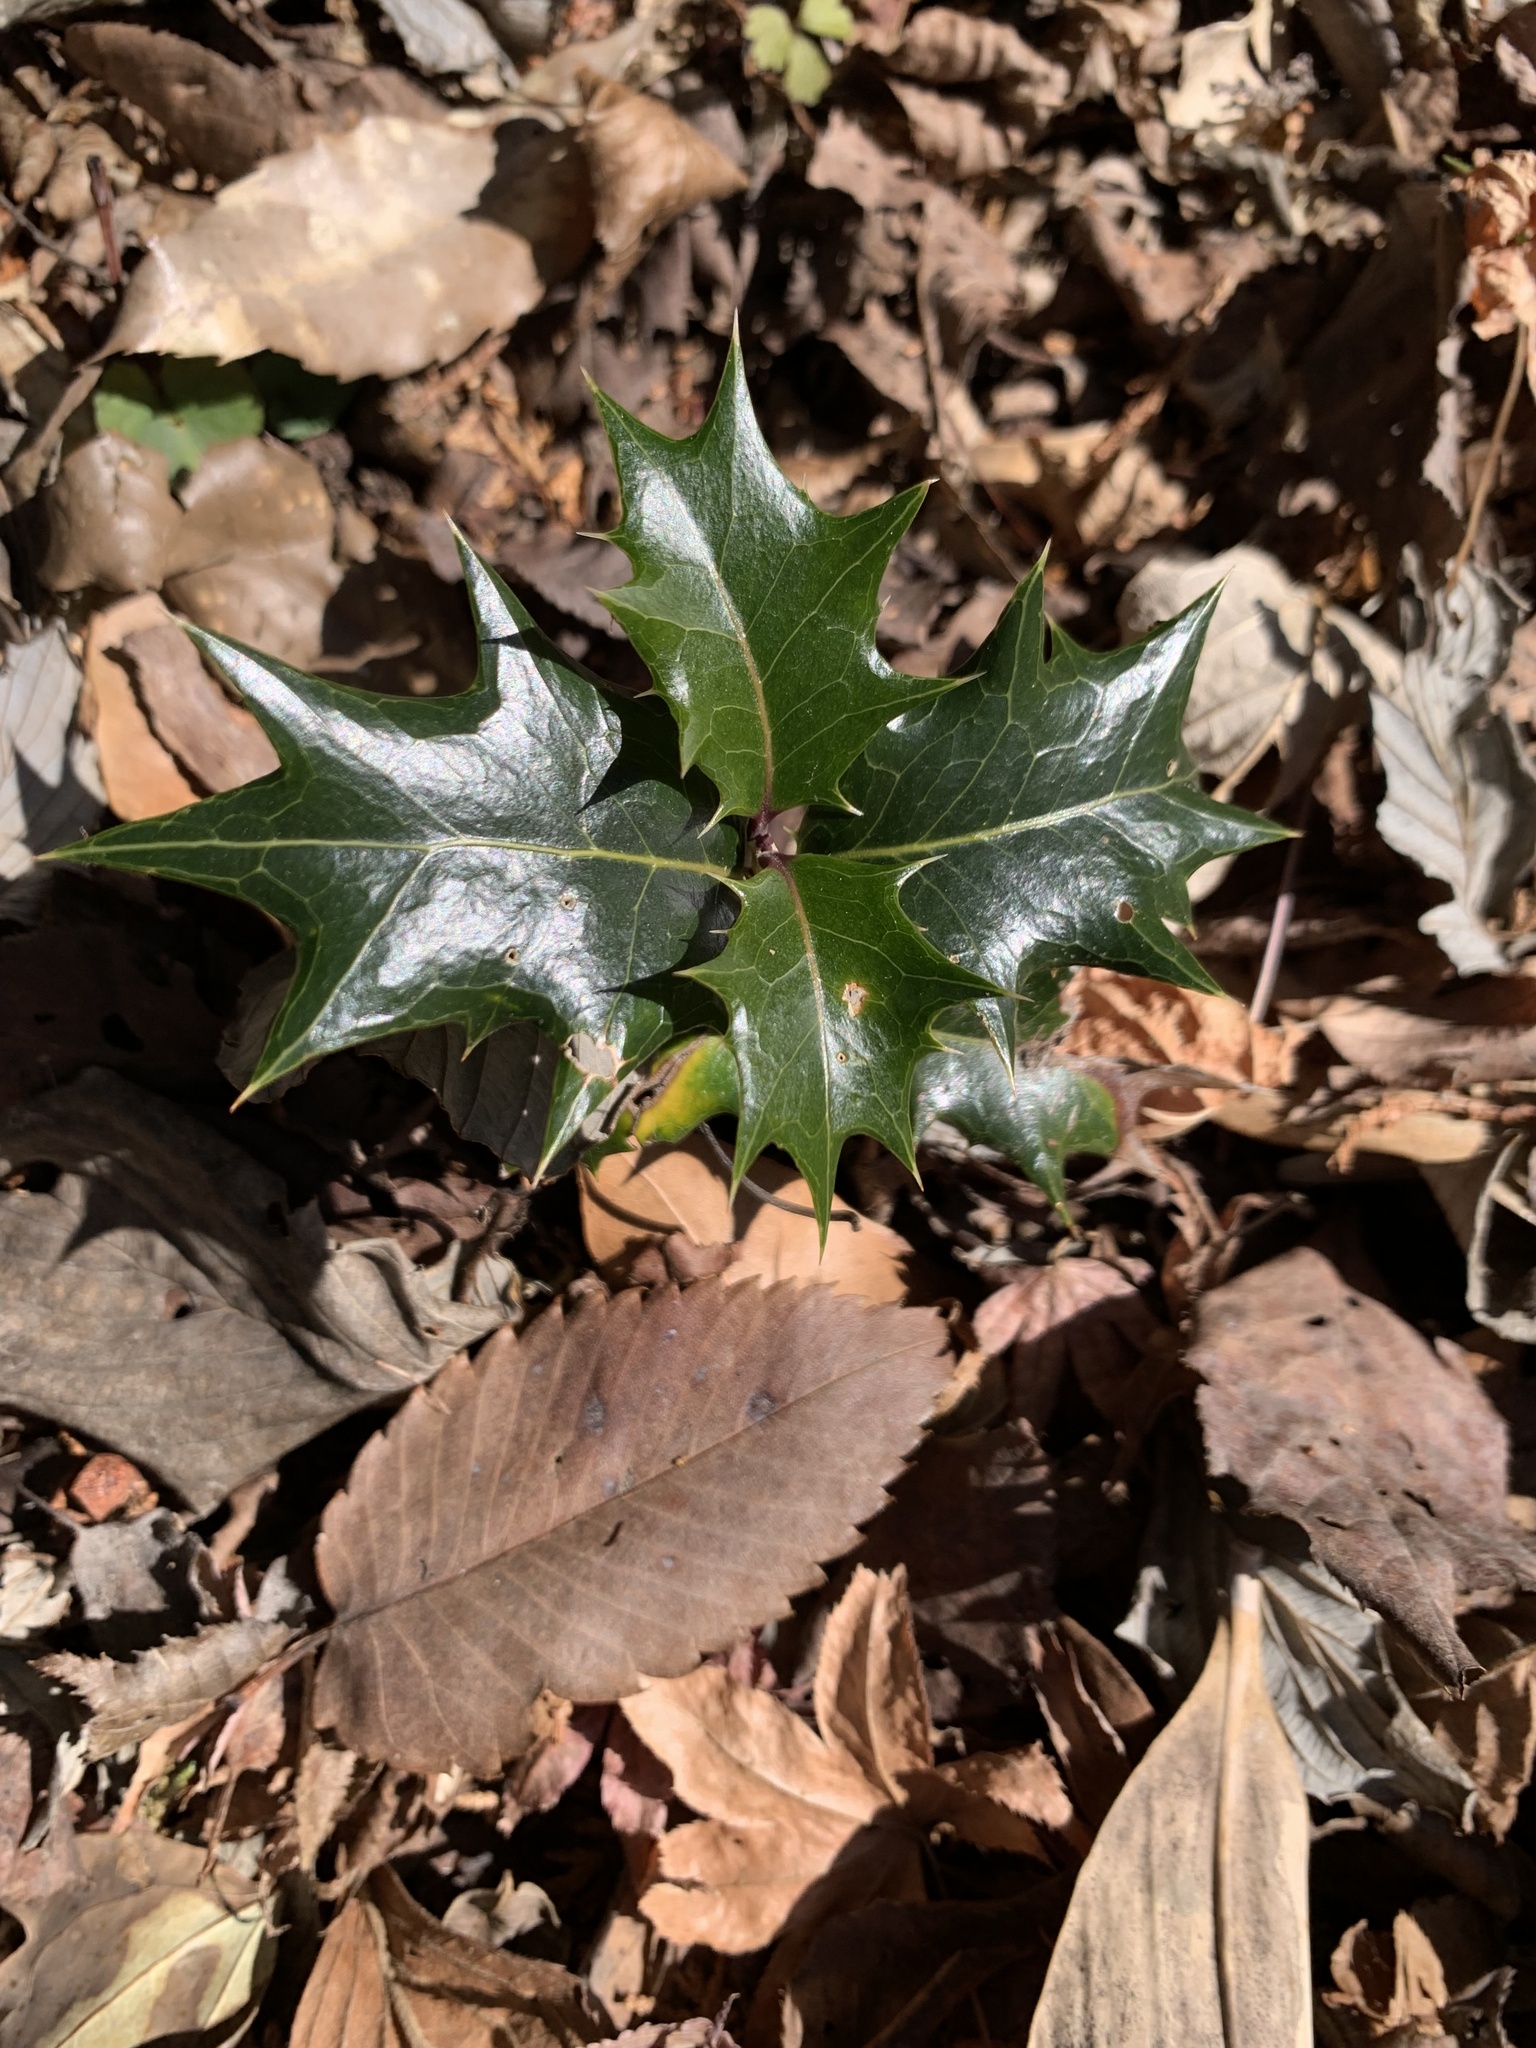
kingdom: Plantae
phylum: Tracheophyta
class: Magnoliopsida
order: Lamiales
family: Oleaceae
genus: Osmanthus
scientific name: Osmanthus heterophyllus
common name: Holly osmanthus
